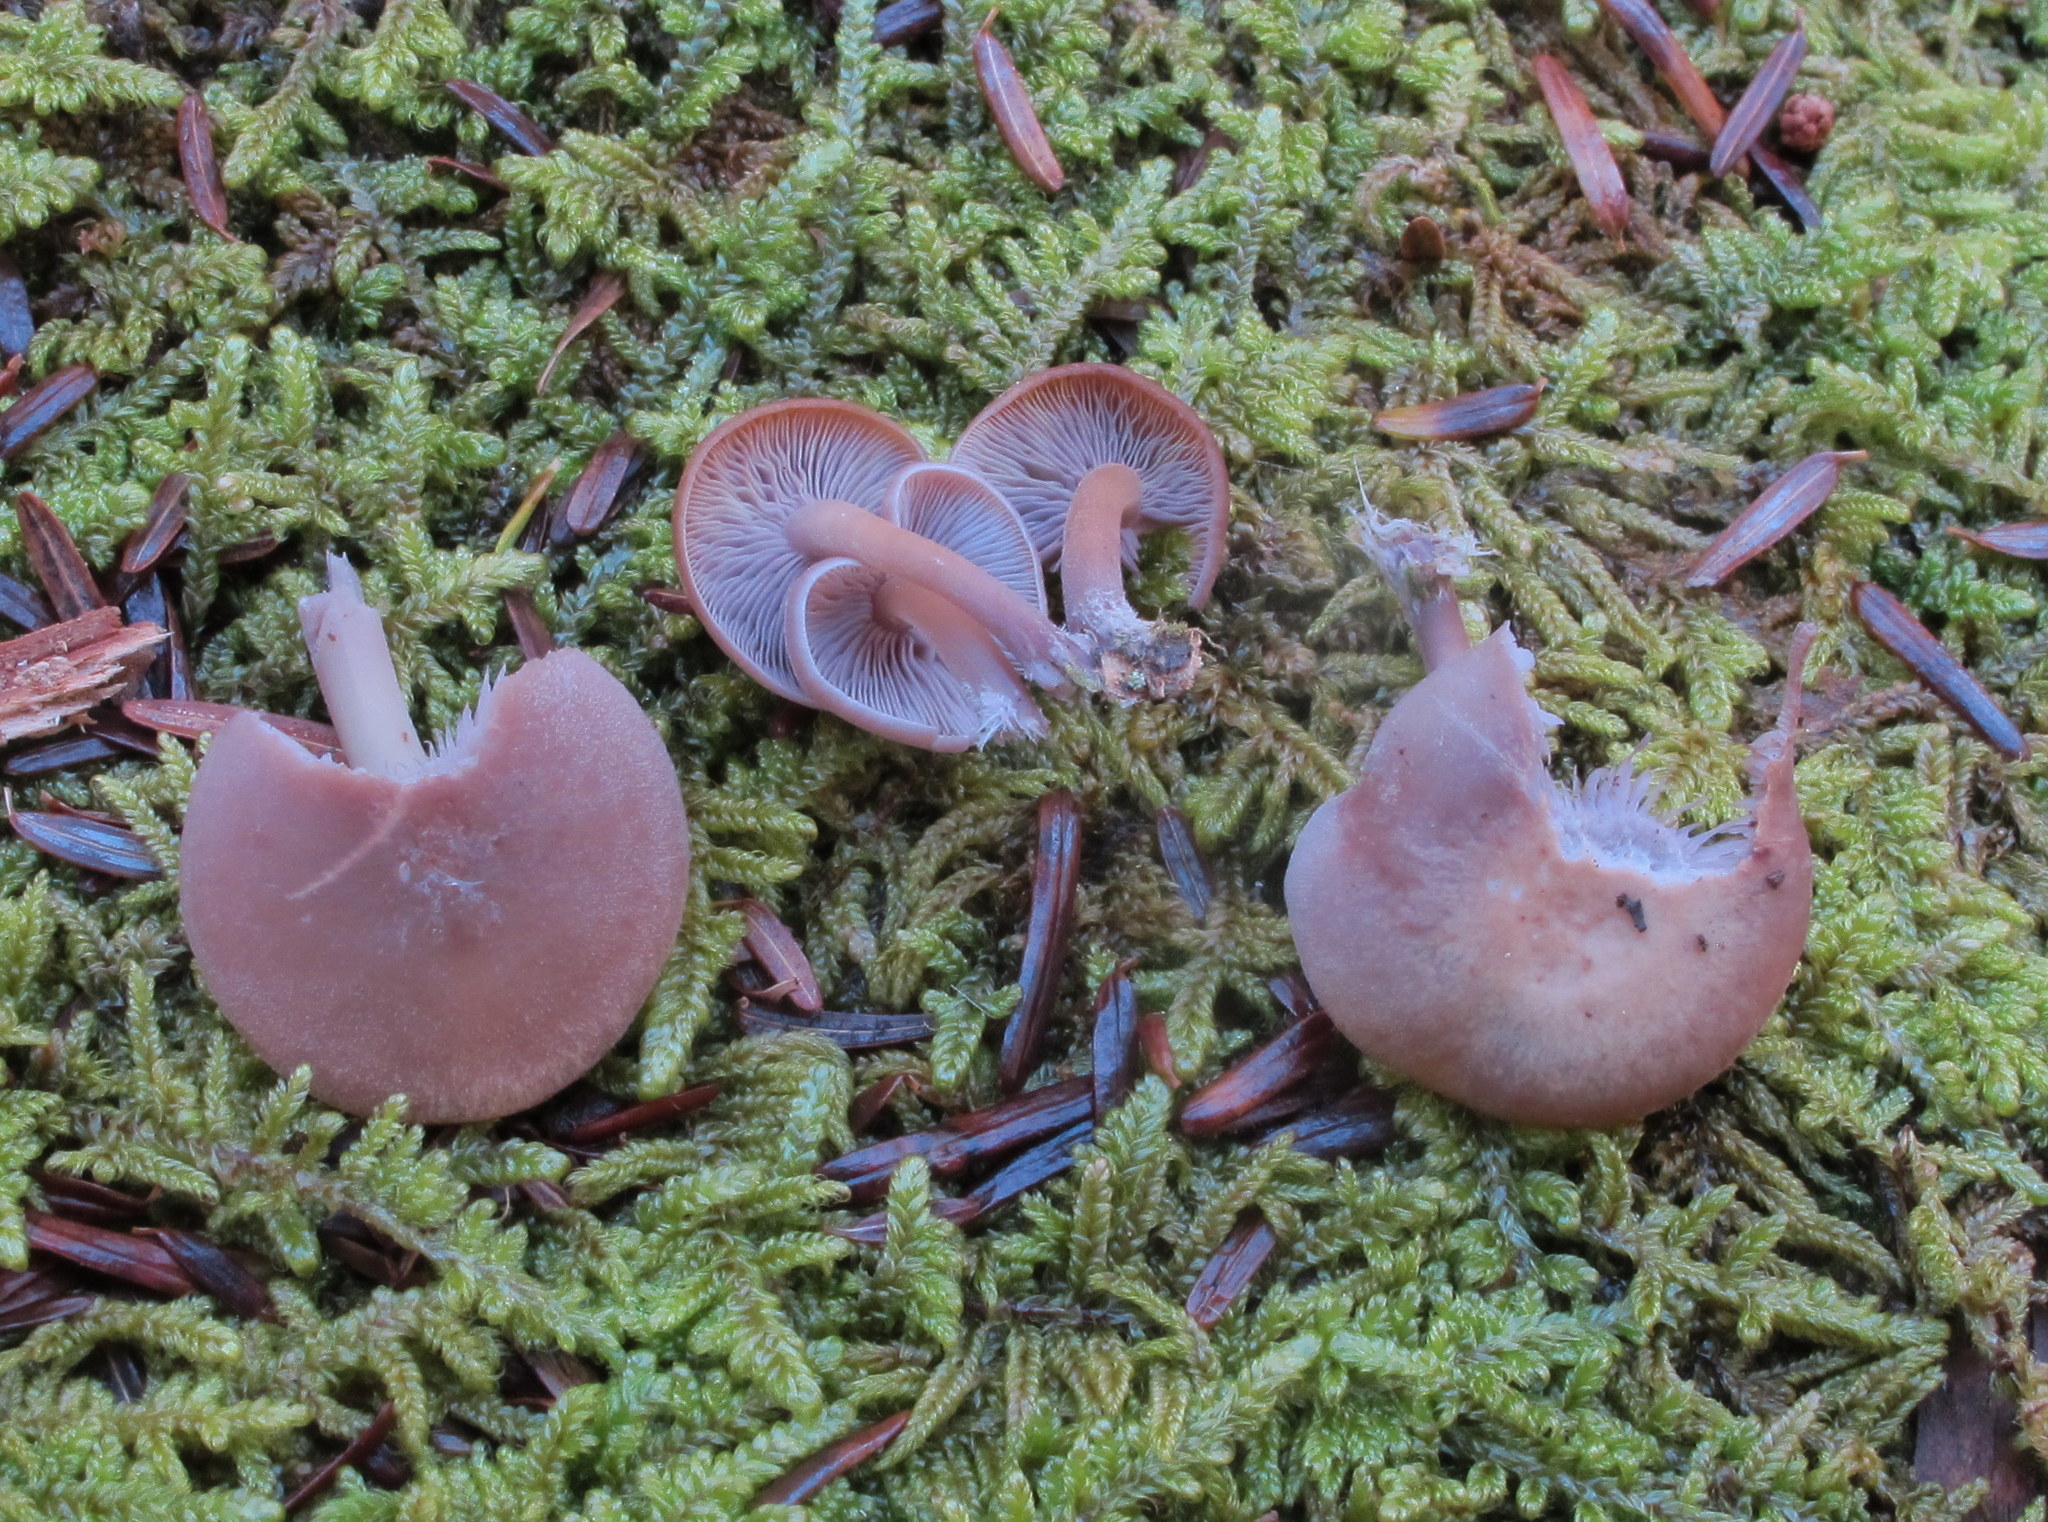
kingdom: Fungi
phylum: Basidiomycota
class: Agaricomycetes
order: Agaricales
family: Marasmiaceae
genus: Baeospora
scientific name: Baeospora myriadophylla
